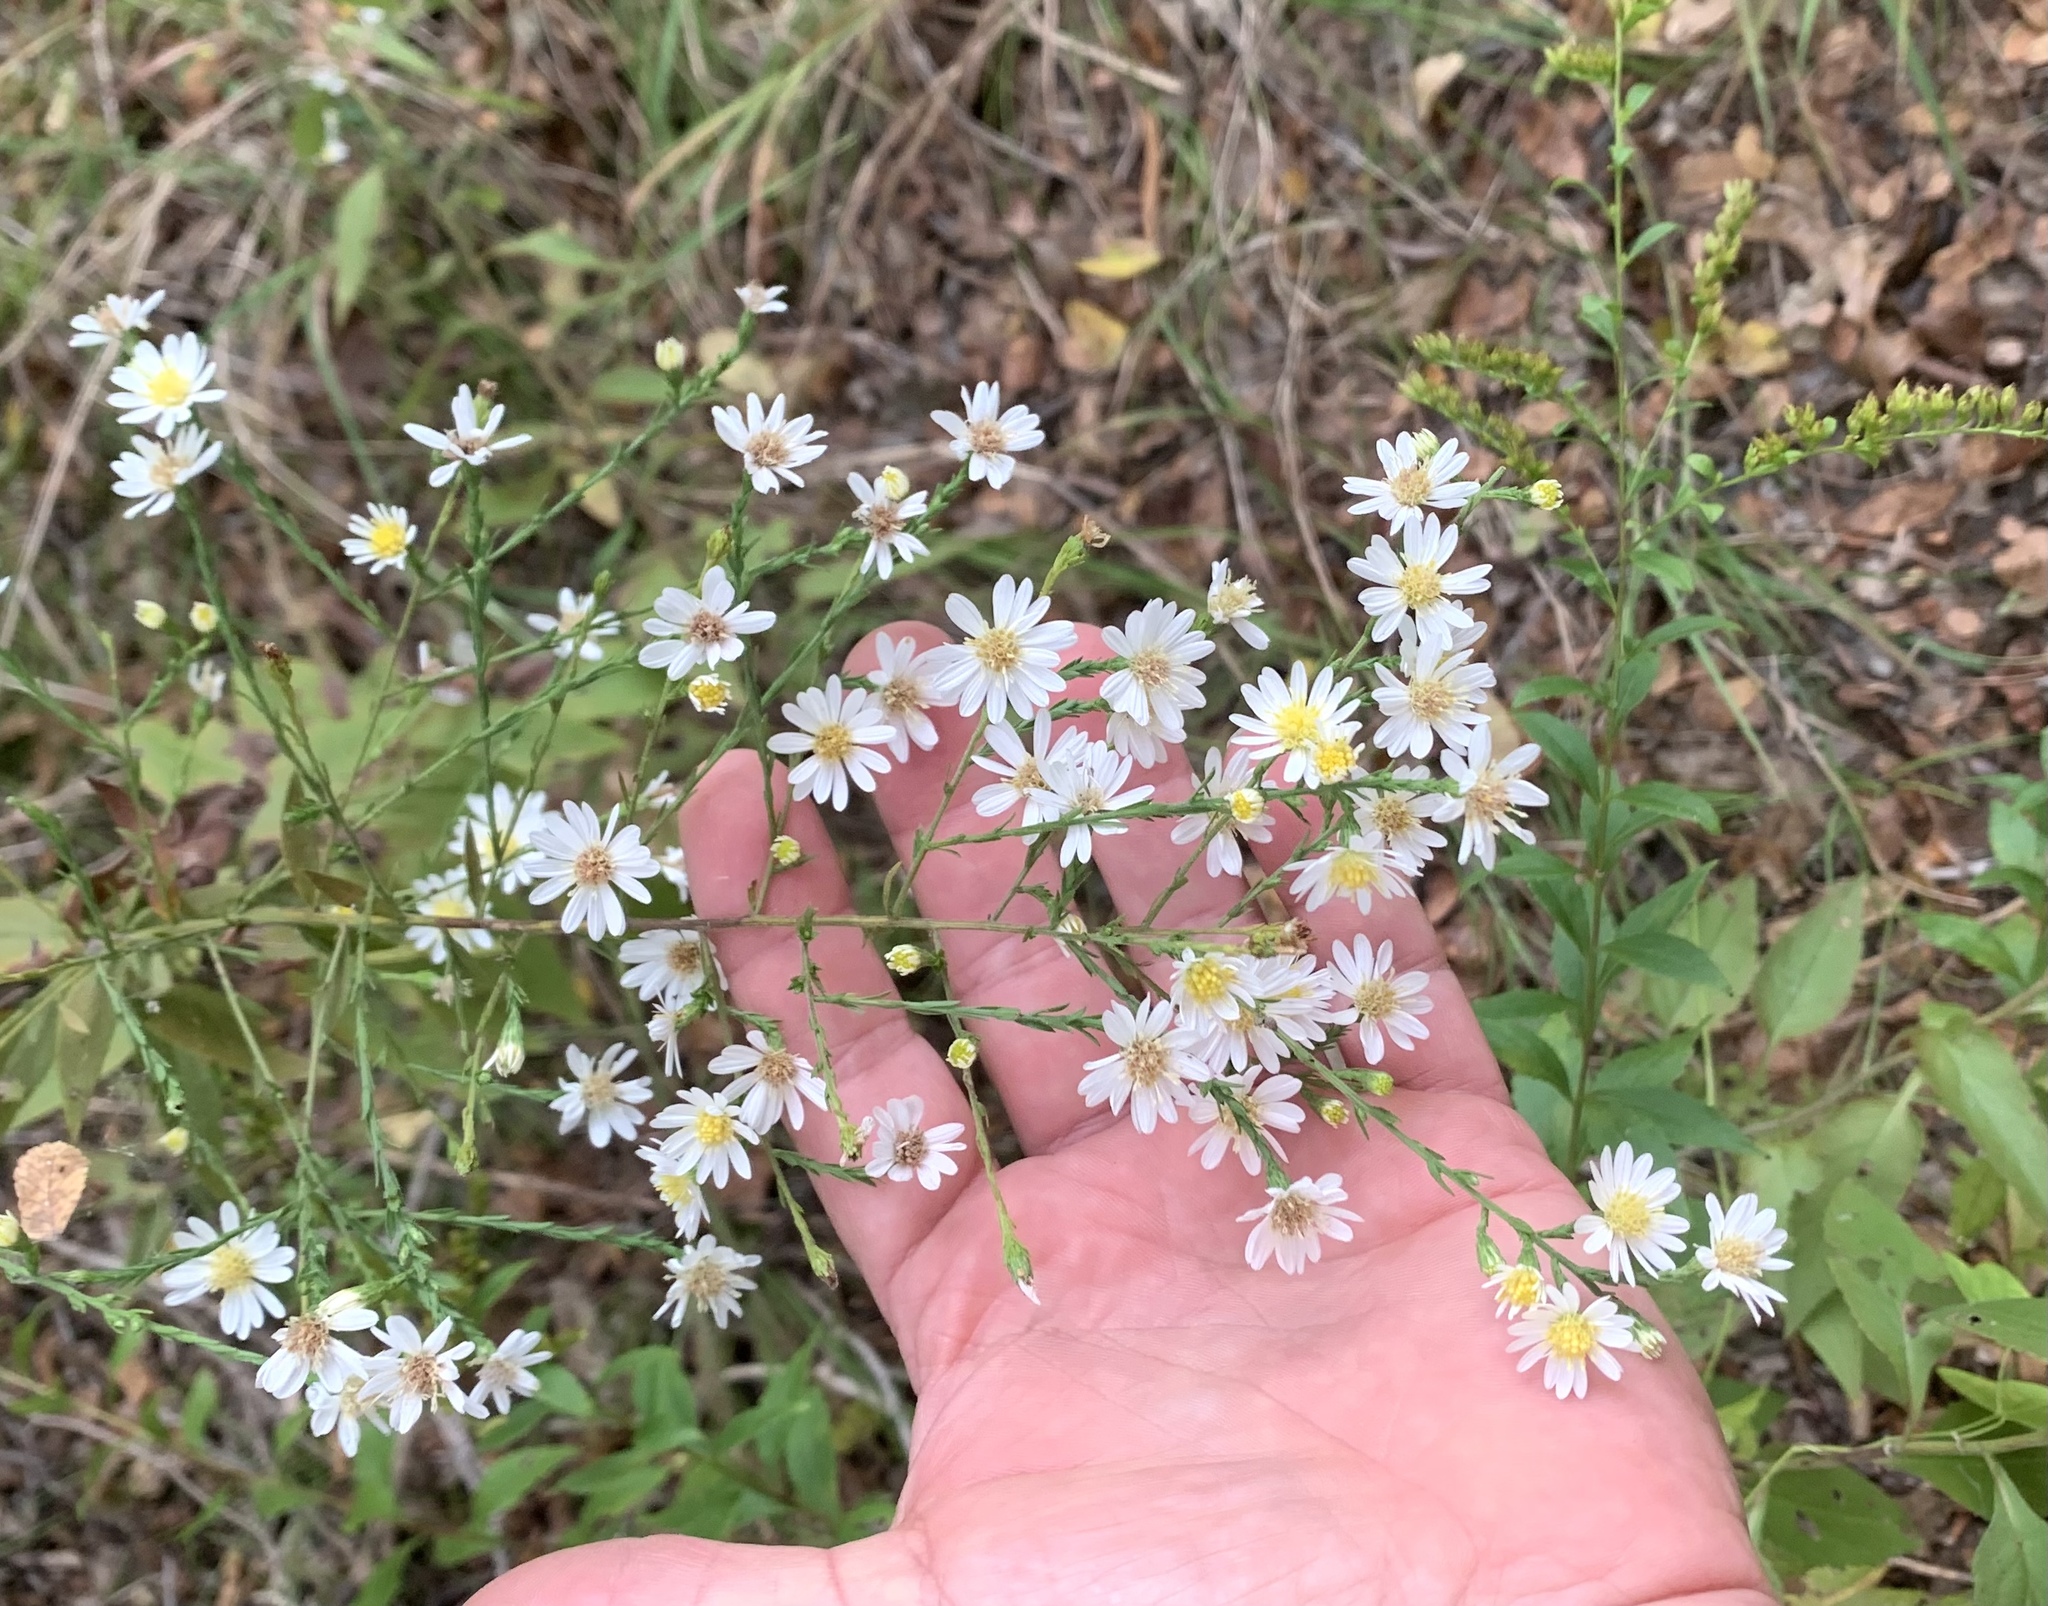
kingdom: Plantae
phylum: Tracheophyta
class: Magnoliopsida
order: Asterales
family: Asteraceae
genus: Symphyotrichum
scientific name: Symphyotrichum drummondii
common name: Drummond's aster
